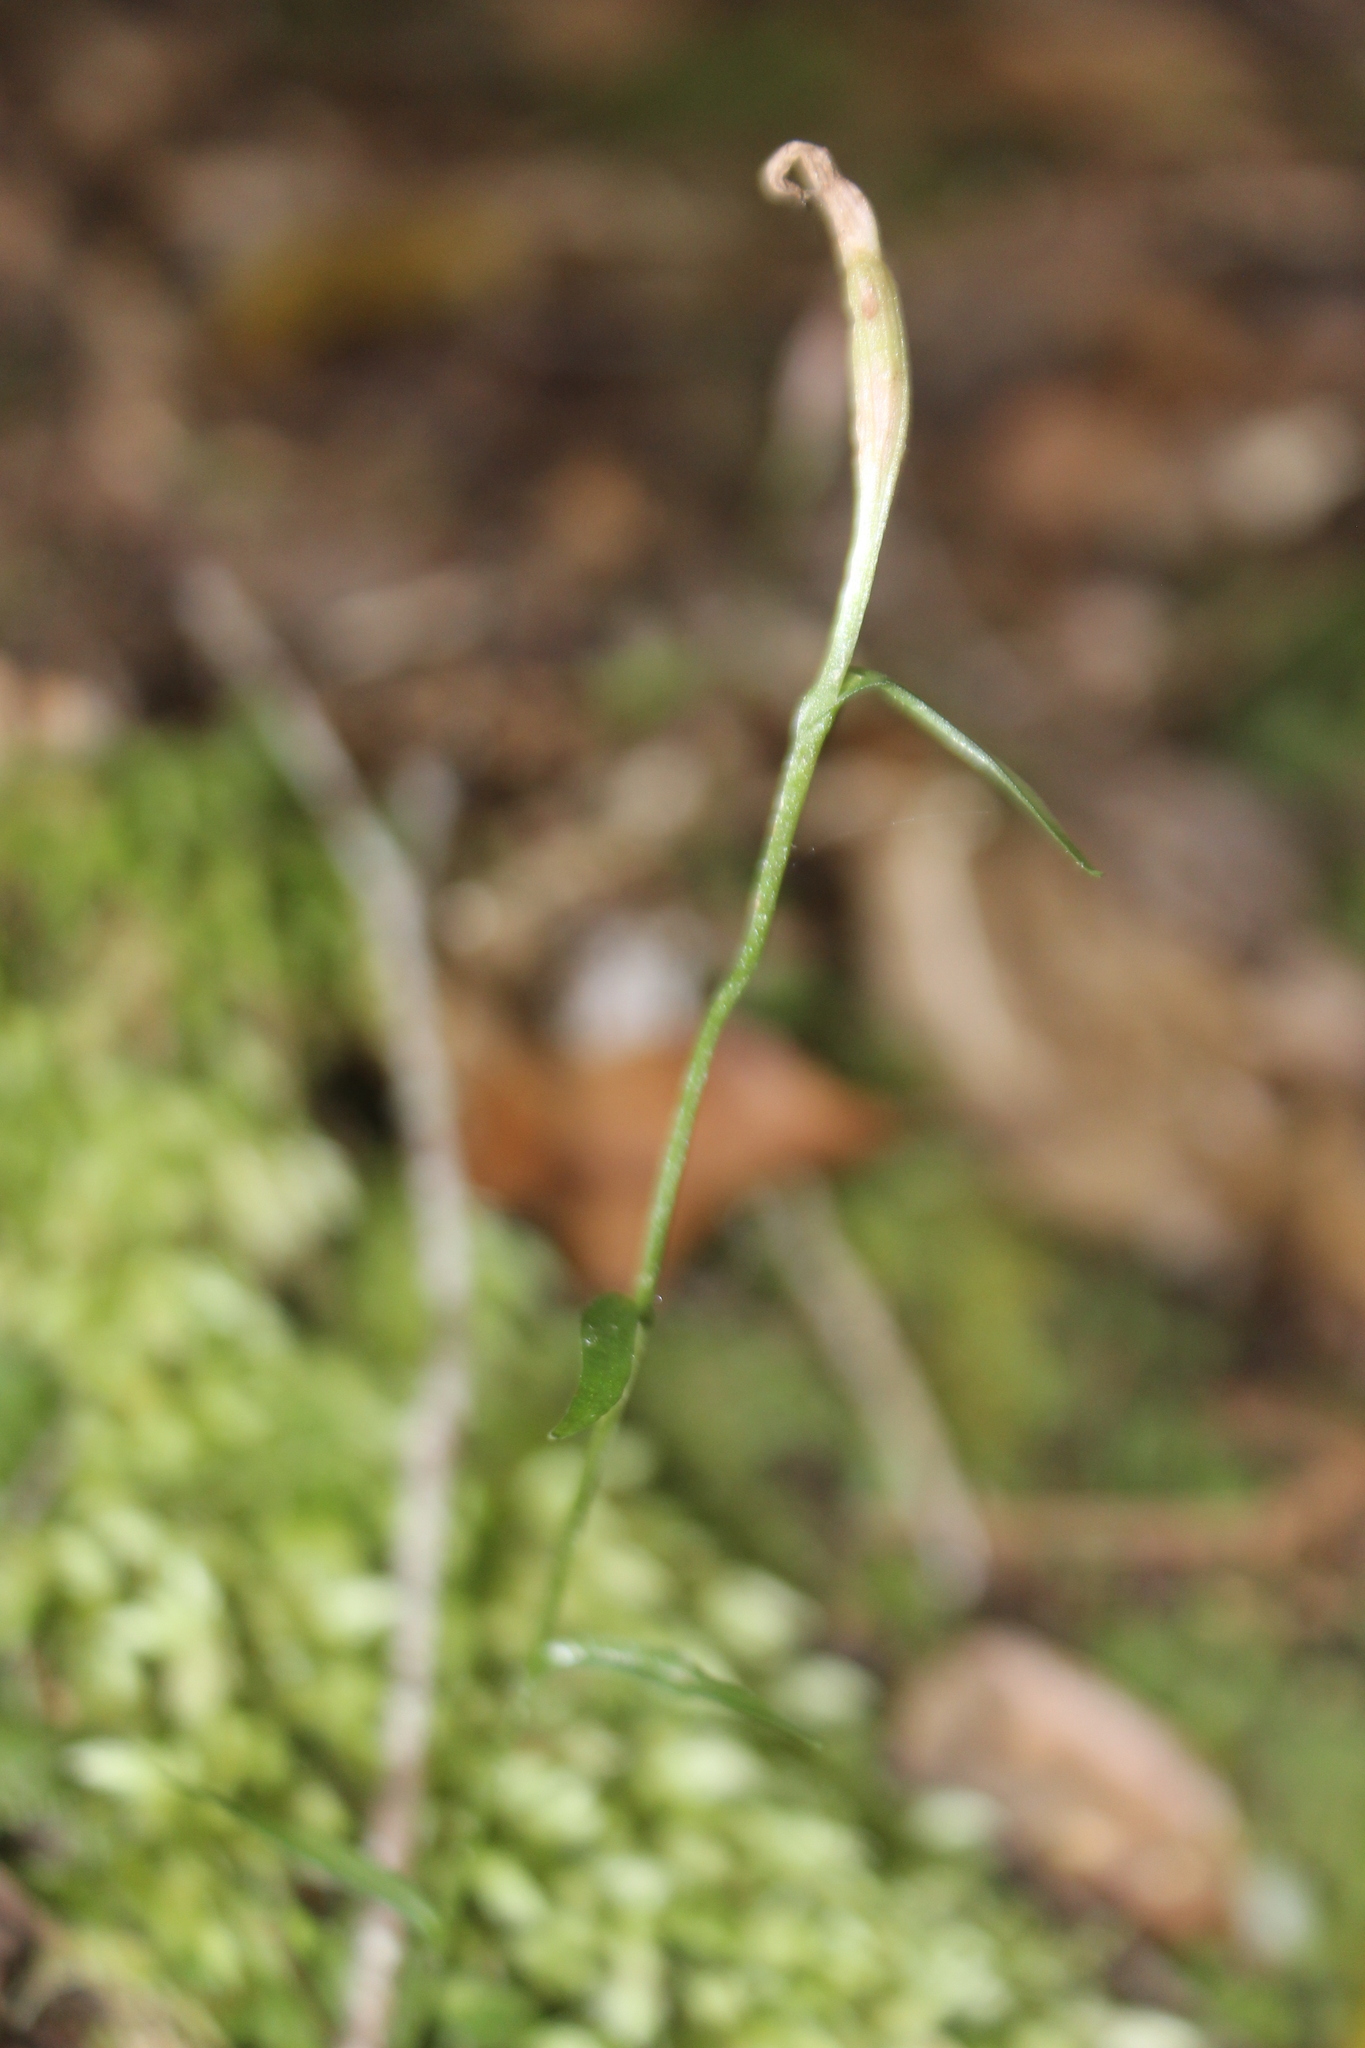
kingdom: Plantae
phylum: Tracheophyta
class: Liliopsida
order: Asparagales
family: Orchidaceae
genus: Pterostylis
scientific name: Pterostylis alobula
